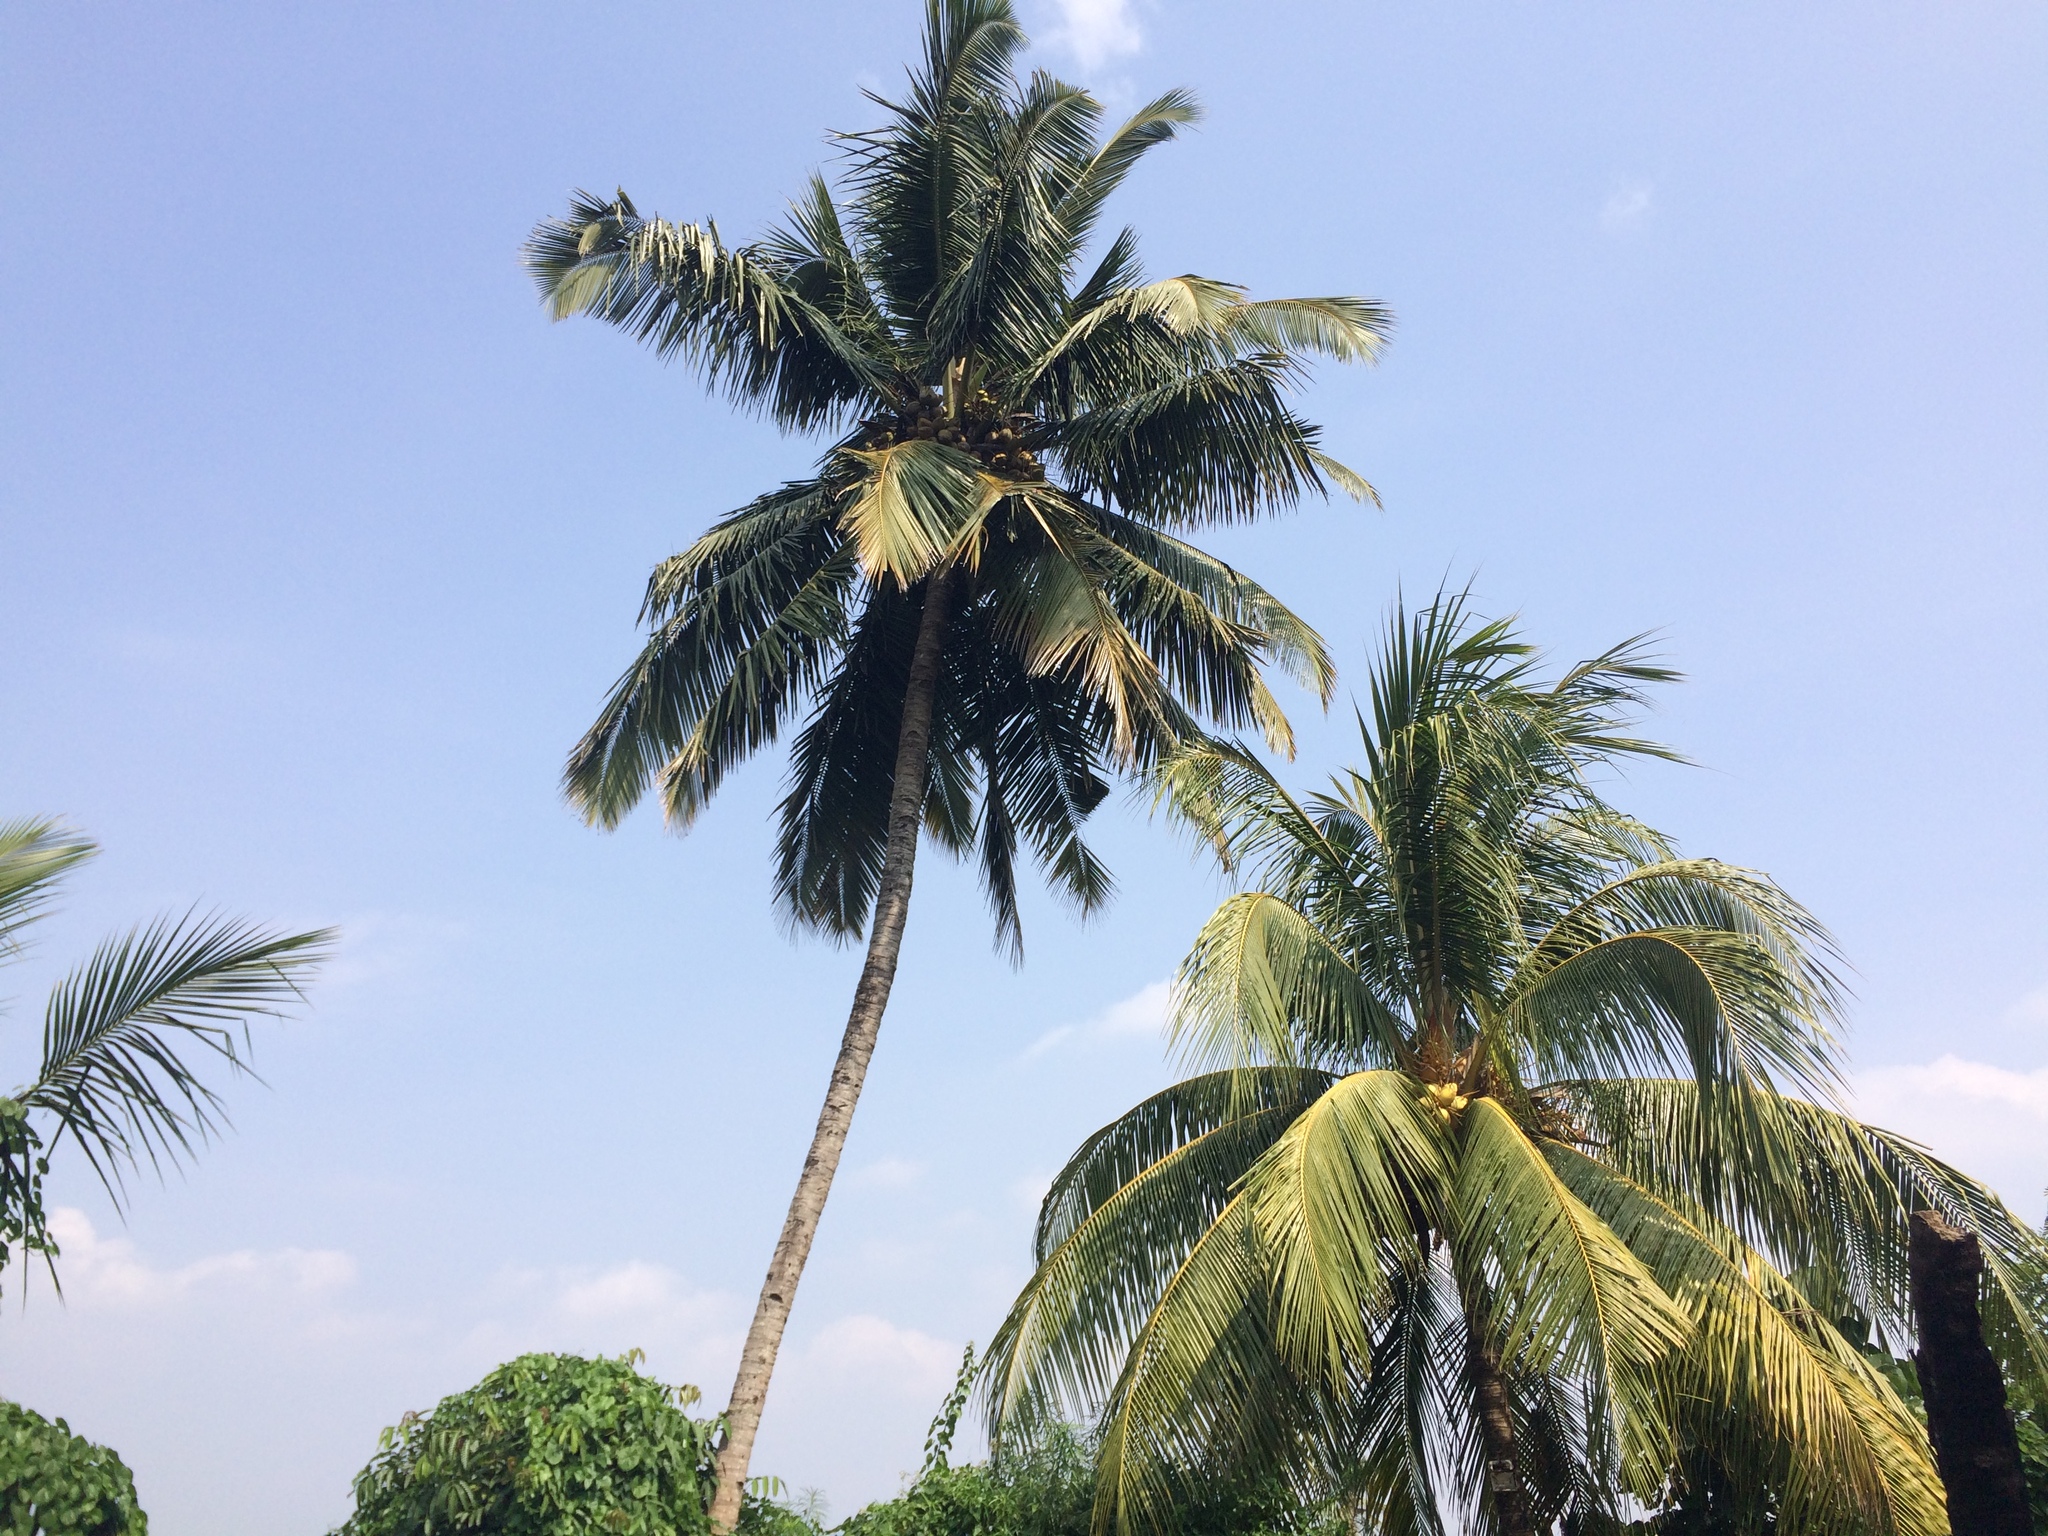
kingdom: Plantae
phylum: Tracheophyta
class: Liliopsida
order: Arecales
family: Arecaceae
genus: Cocos
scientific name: Cocos nucifera
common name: Coconut palm
